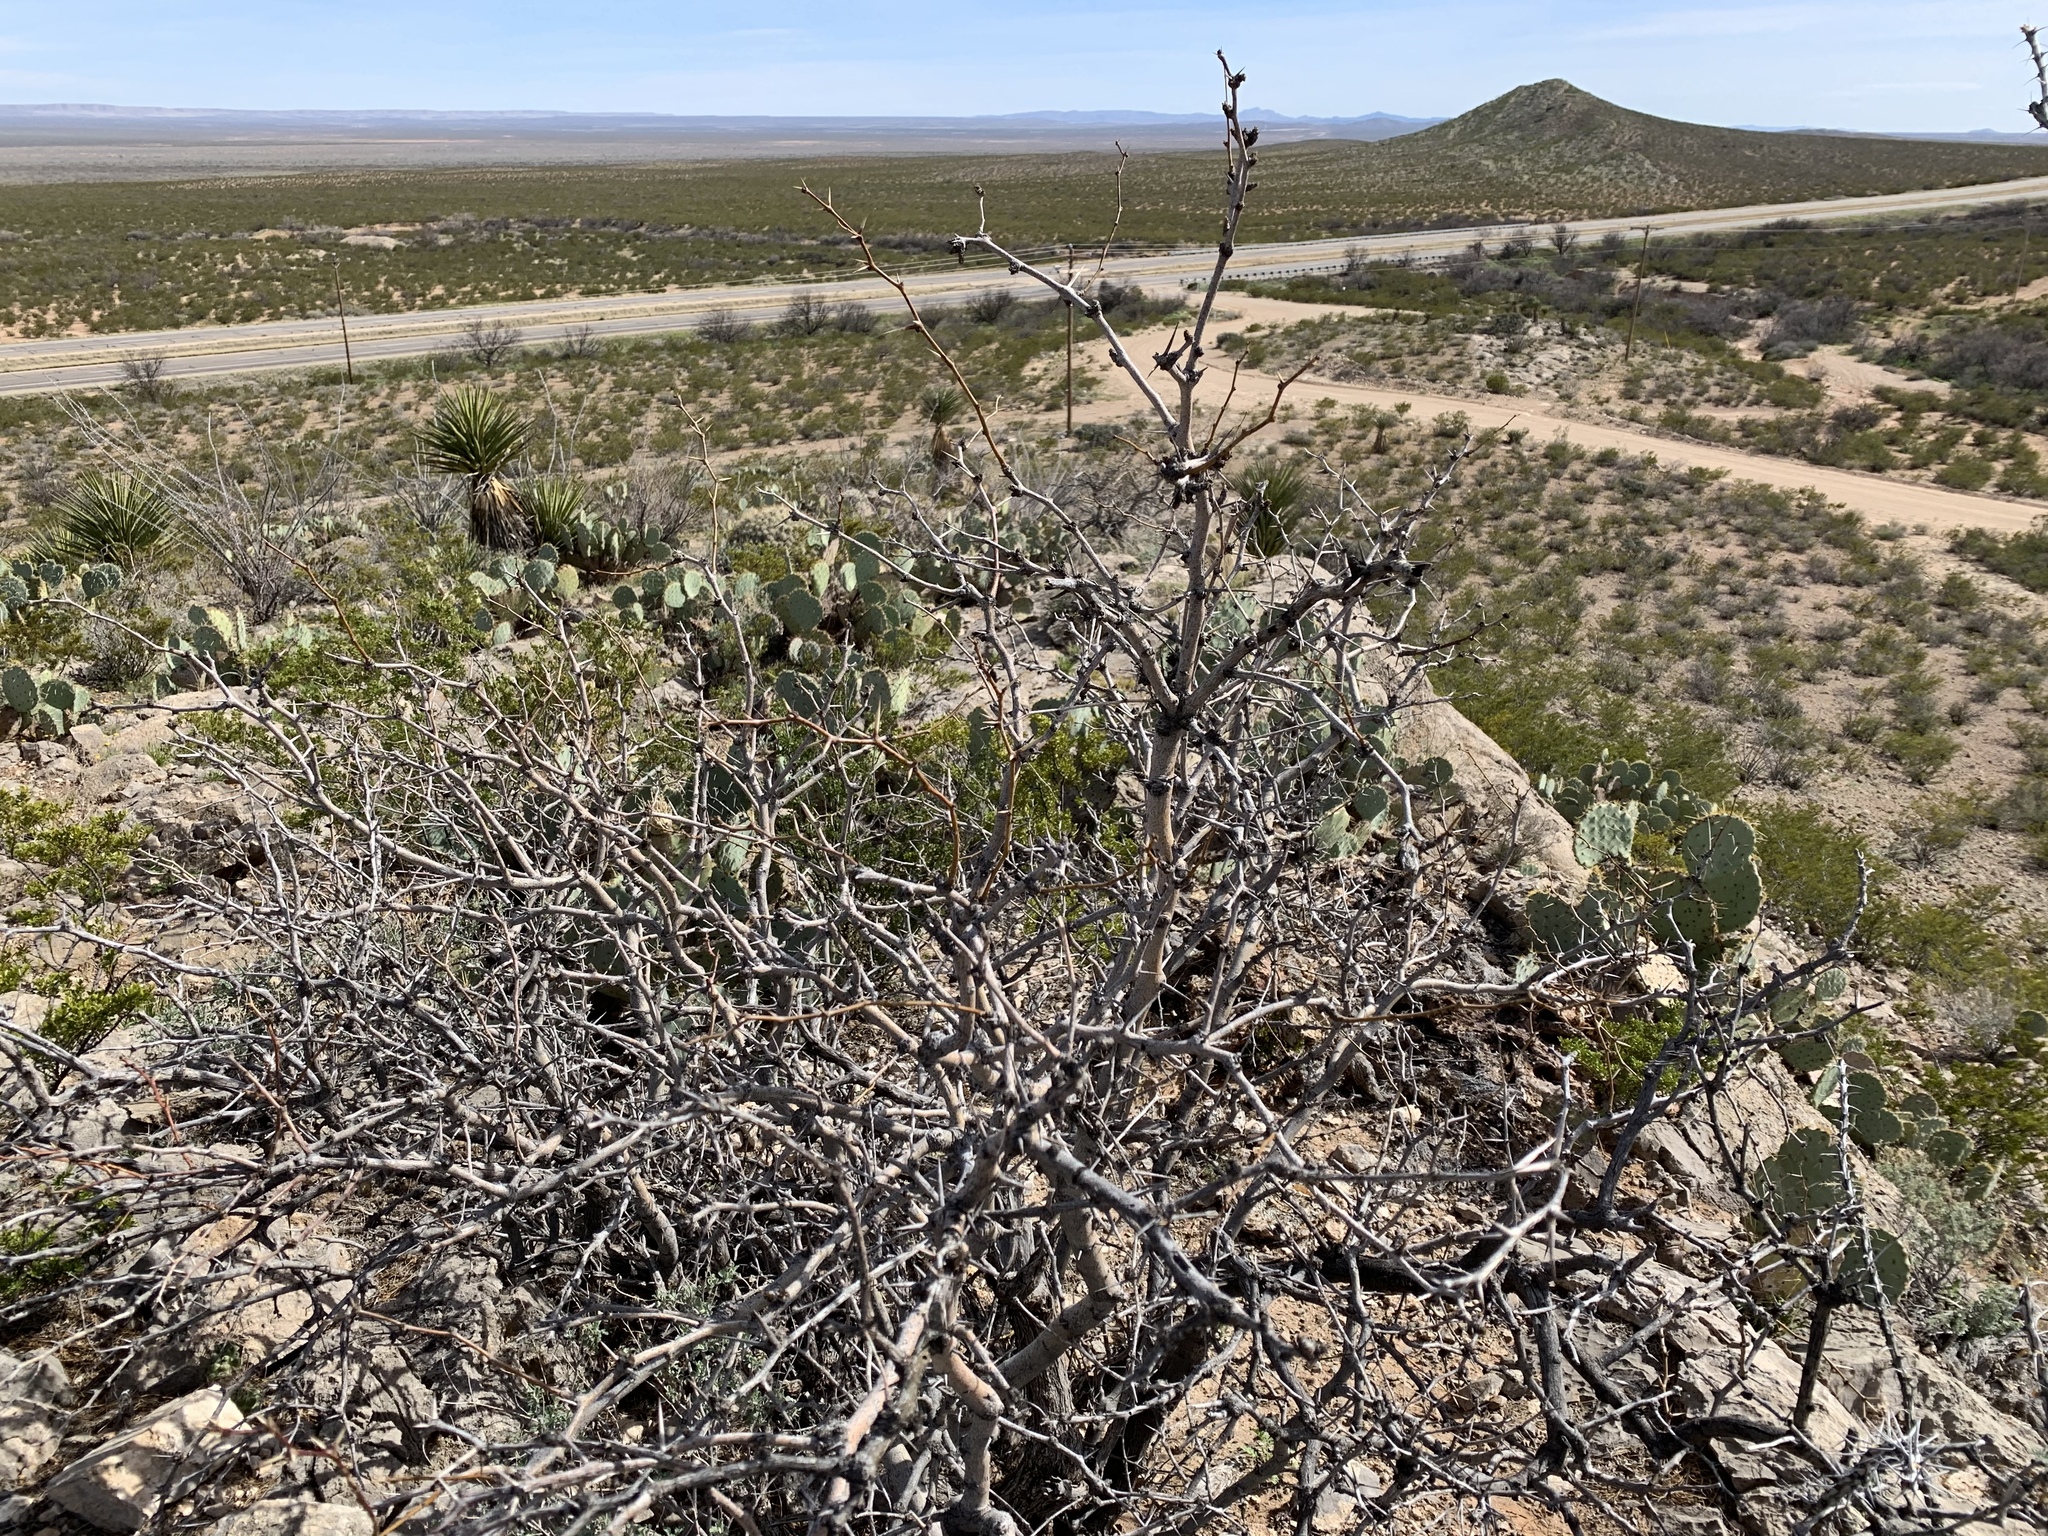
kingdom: Plantae
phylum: Tracheophyta
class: Magnoliopsida
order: Fabales
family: Fabaceae
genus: Prosopis
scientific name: Prosopis glandulosa
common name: Honey mesquite
